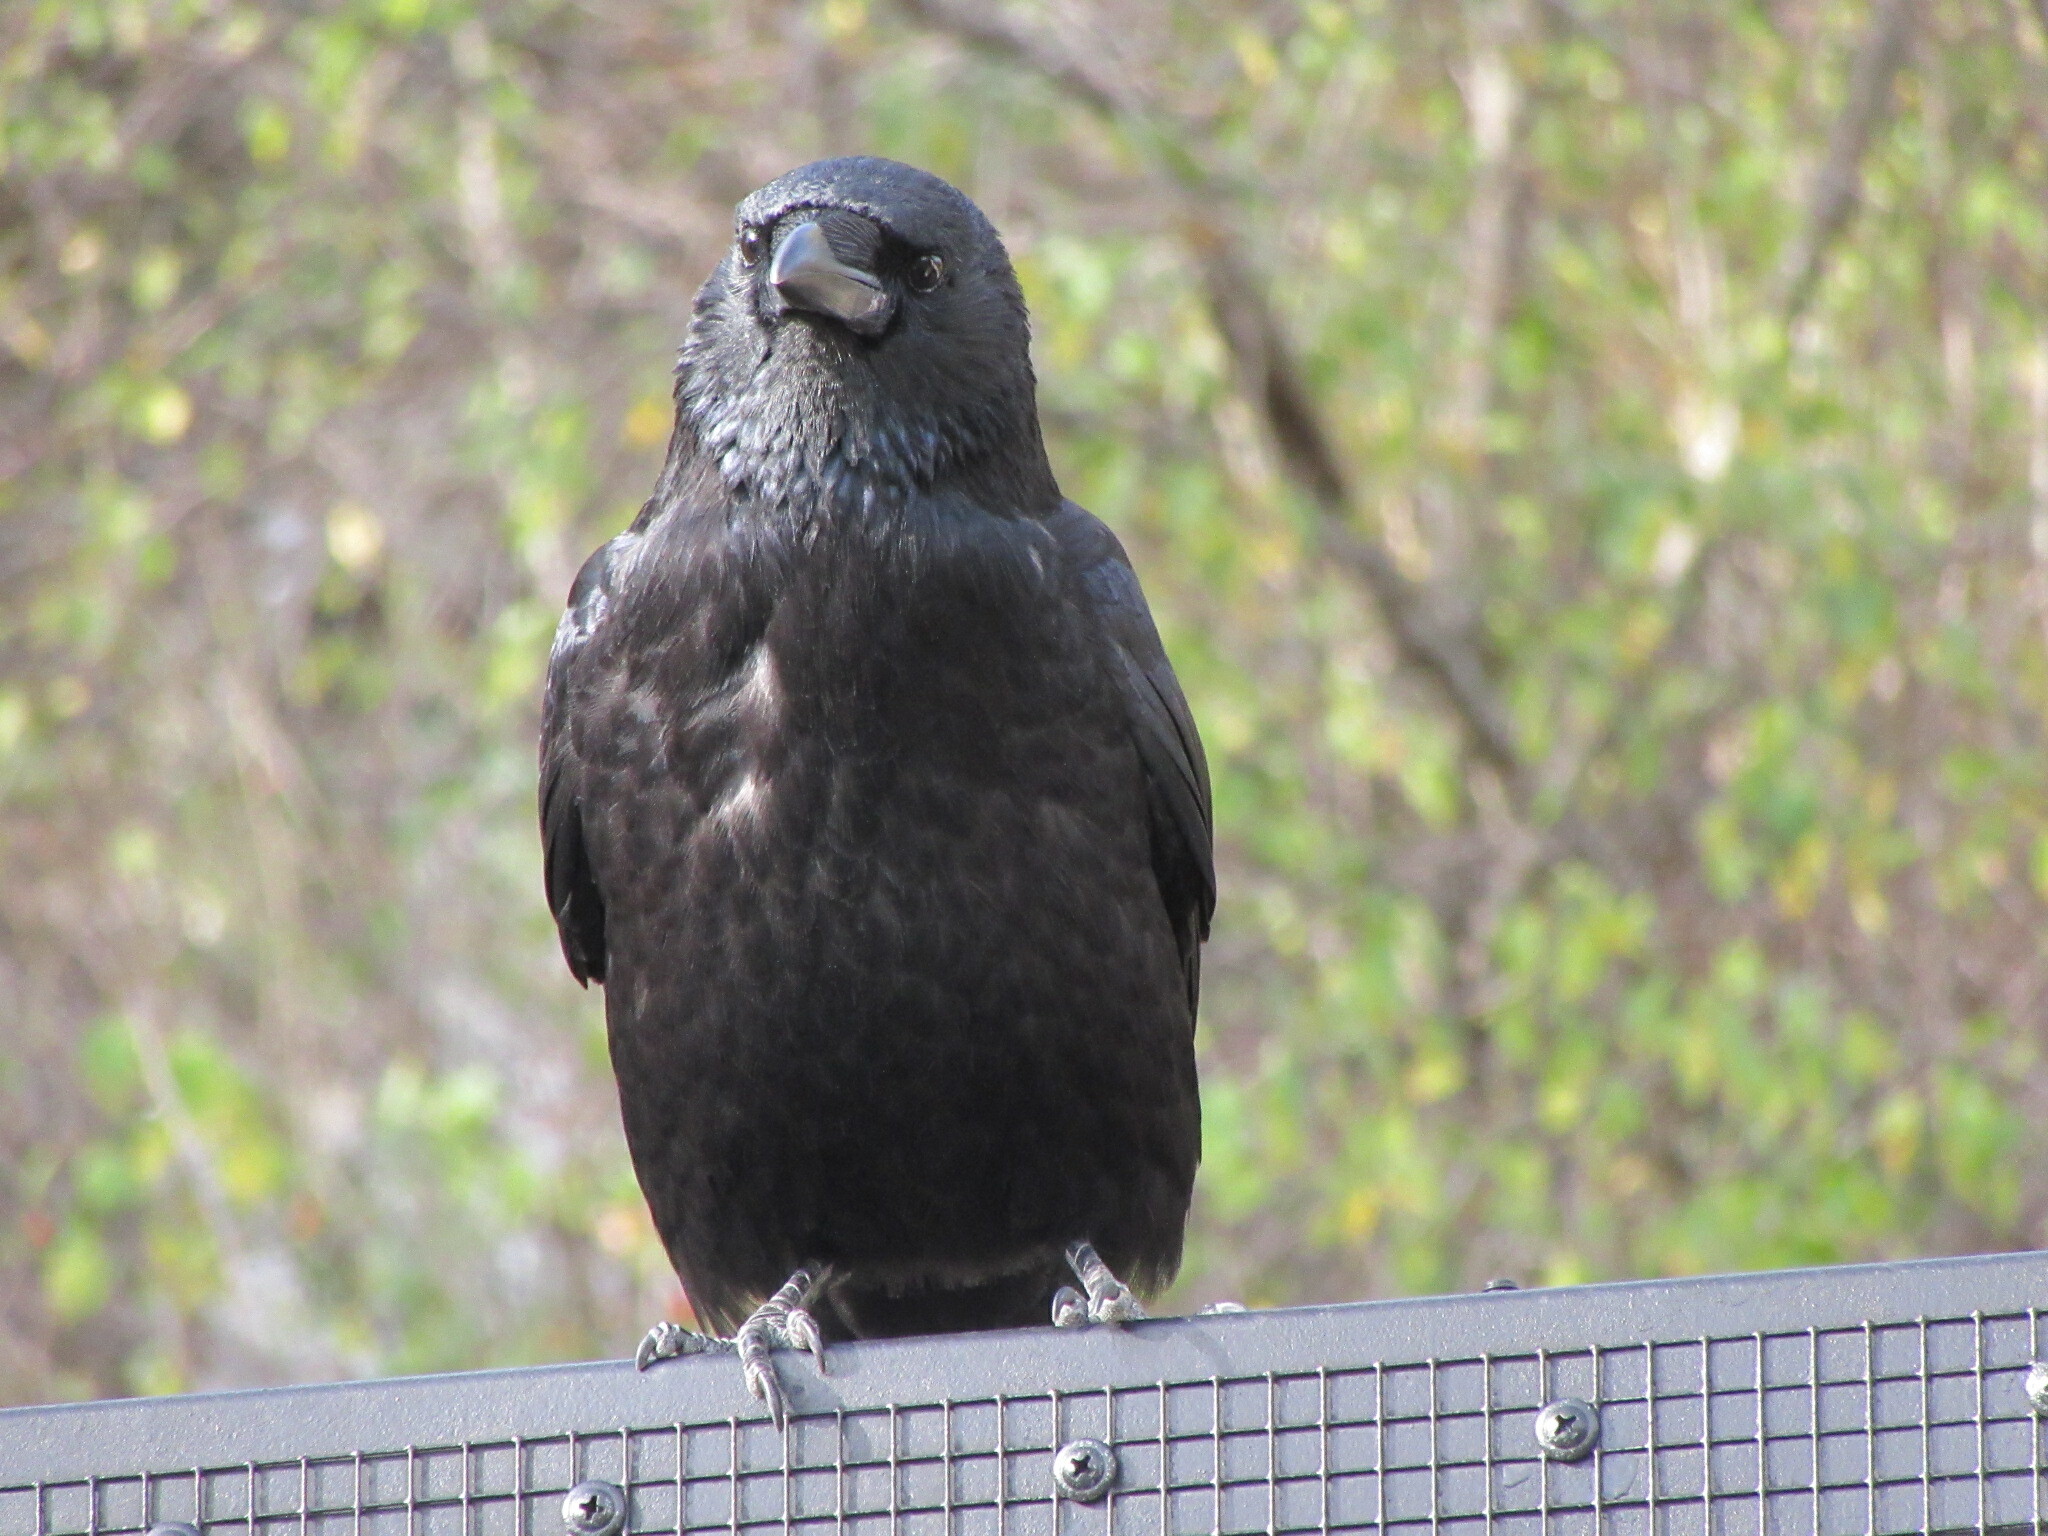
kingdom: Animalia
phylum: Chordata
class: Aves
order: Passeriformes
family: Corvidae
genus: Corvus
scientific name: Corvus corone
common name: Carrion crow
